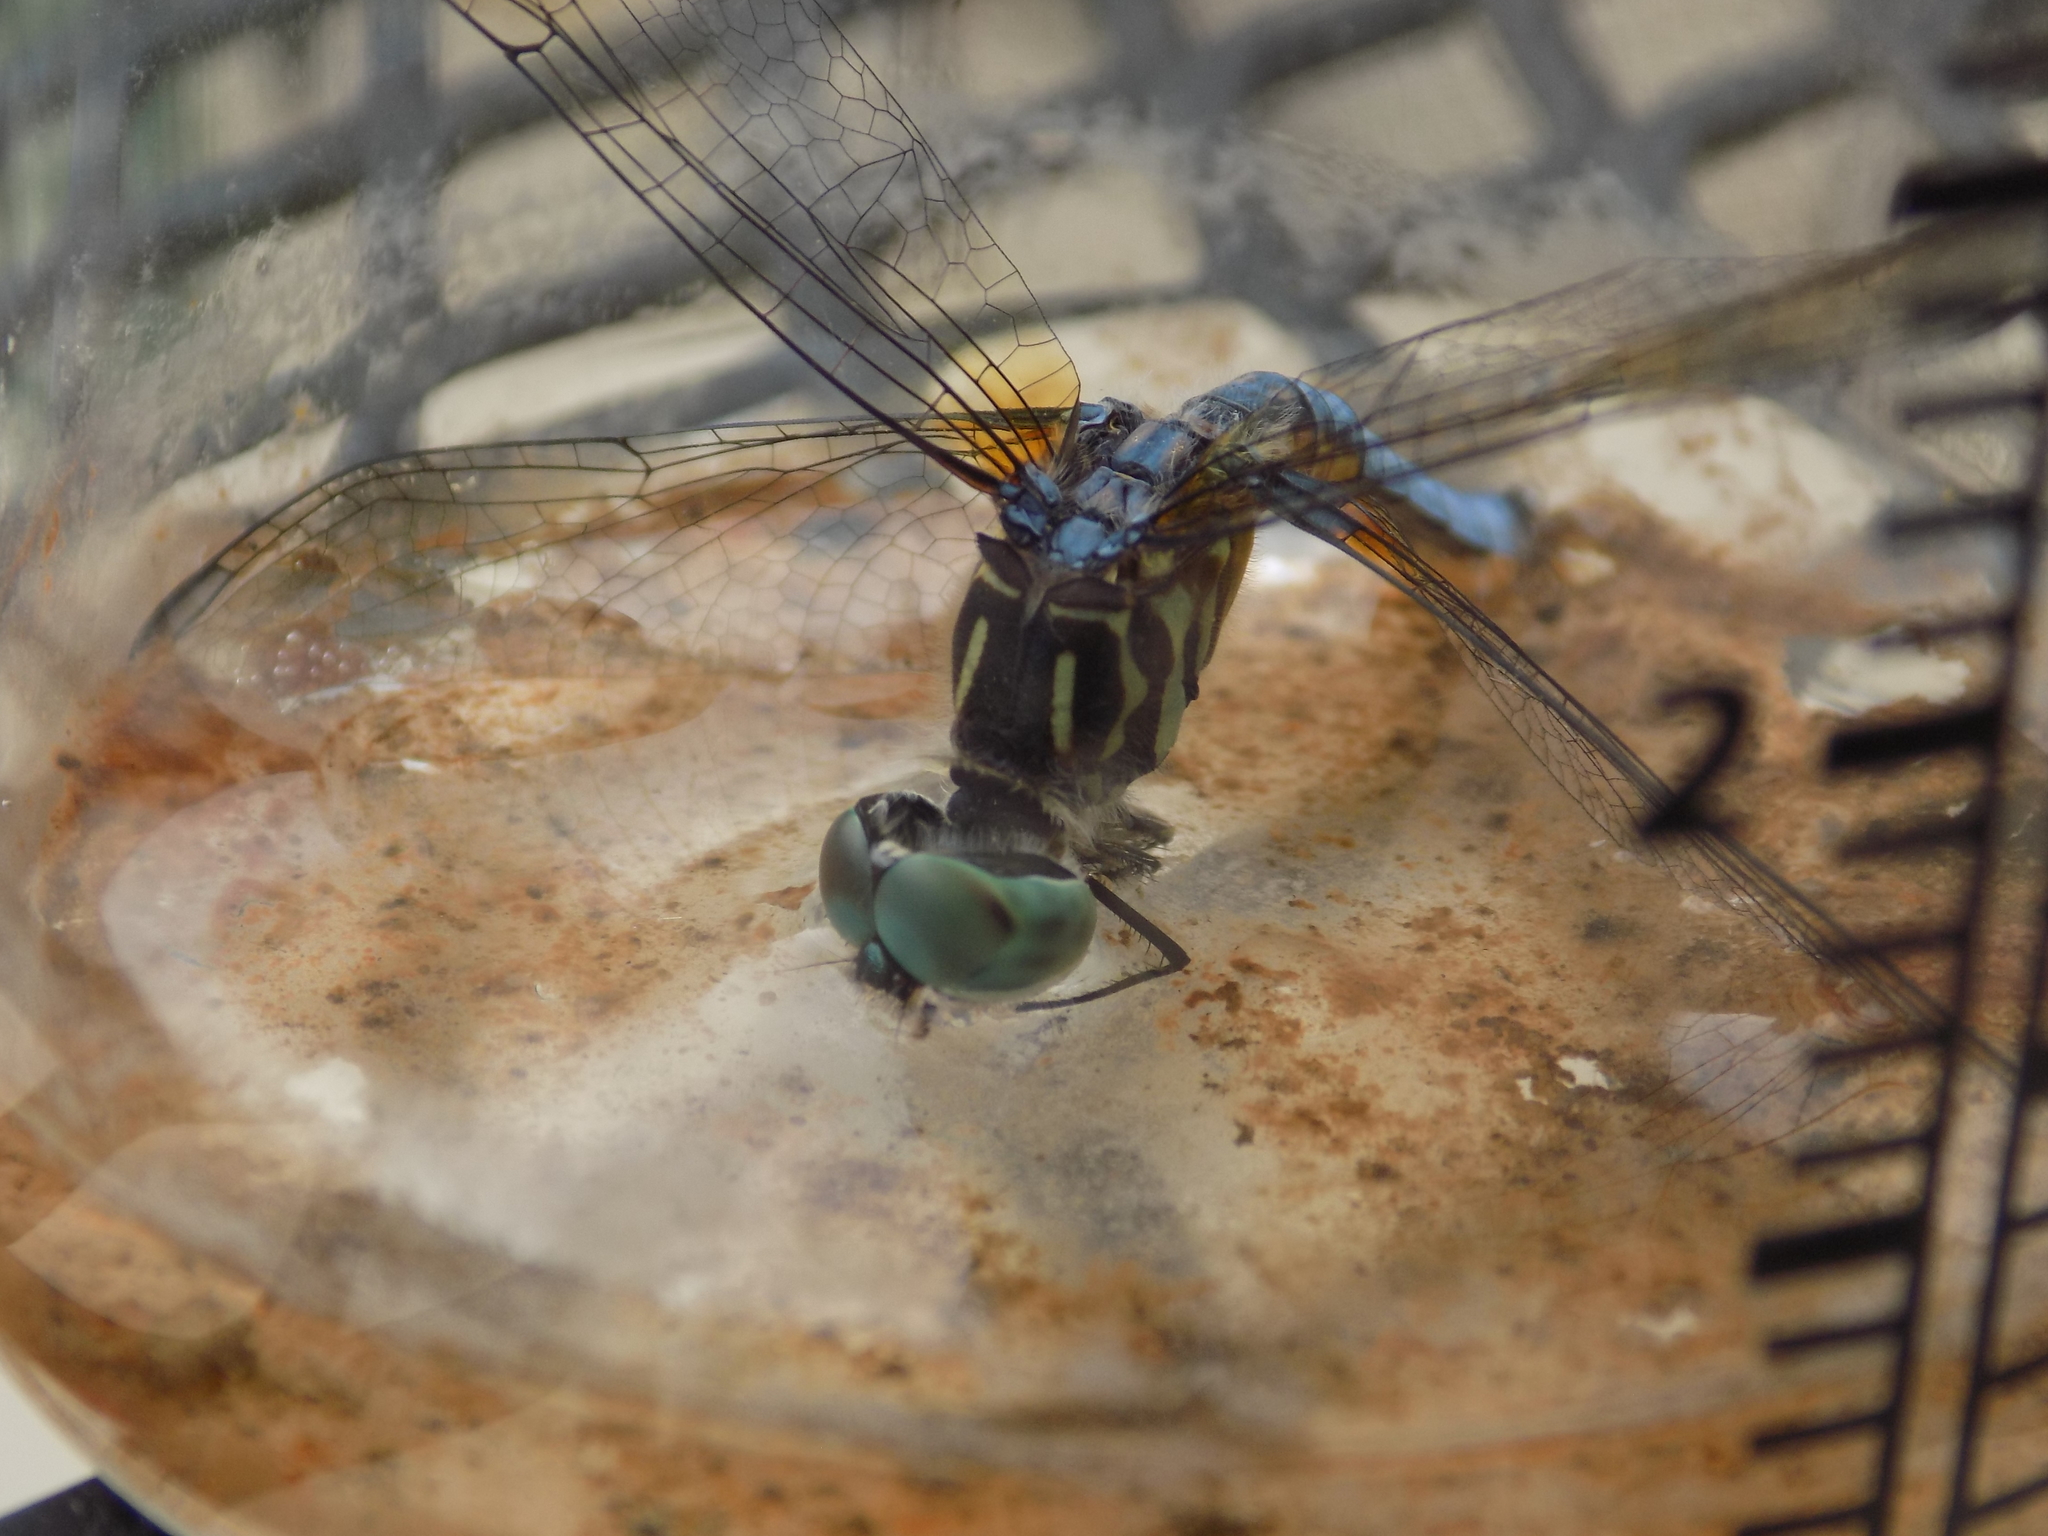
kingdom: Animalia
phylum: Arthropoda
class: Insecta
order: Odonata
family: Libellulidae
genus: Pachydiplax
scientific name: Pachydiplax longipennis
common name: Blue dasher
